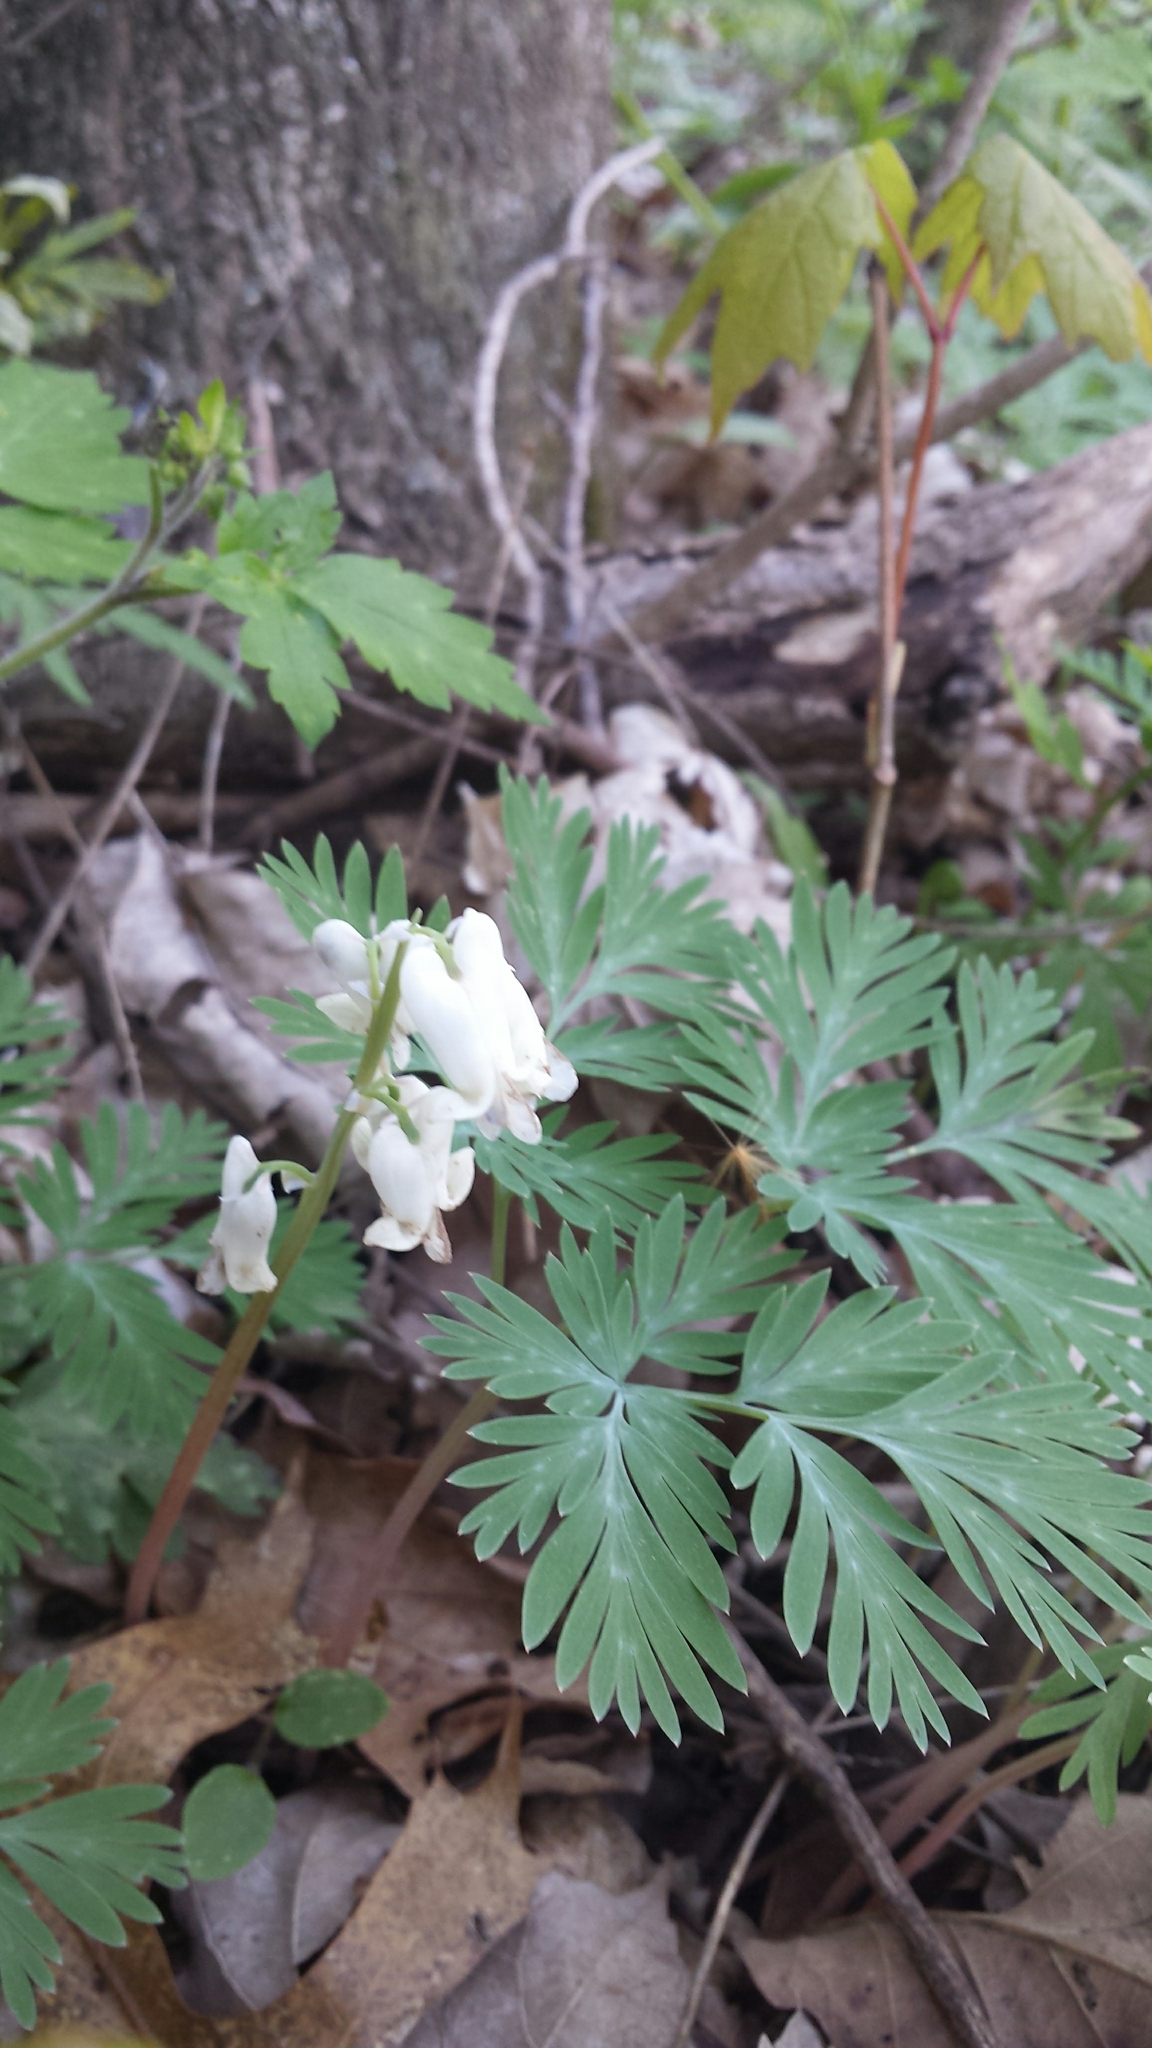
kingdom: Plantae
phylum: Tracheophyta
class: Magnoliopsida
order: Ranunculales
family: Papaveraceae
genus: Dicentra
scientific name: Dicentra canadensis
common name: Squirrel-corn
